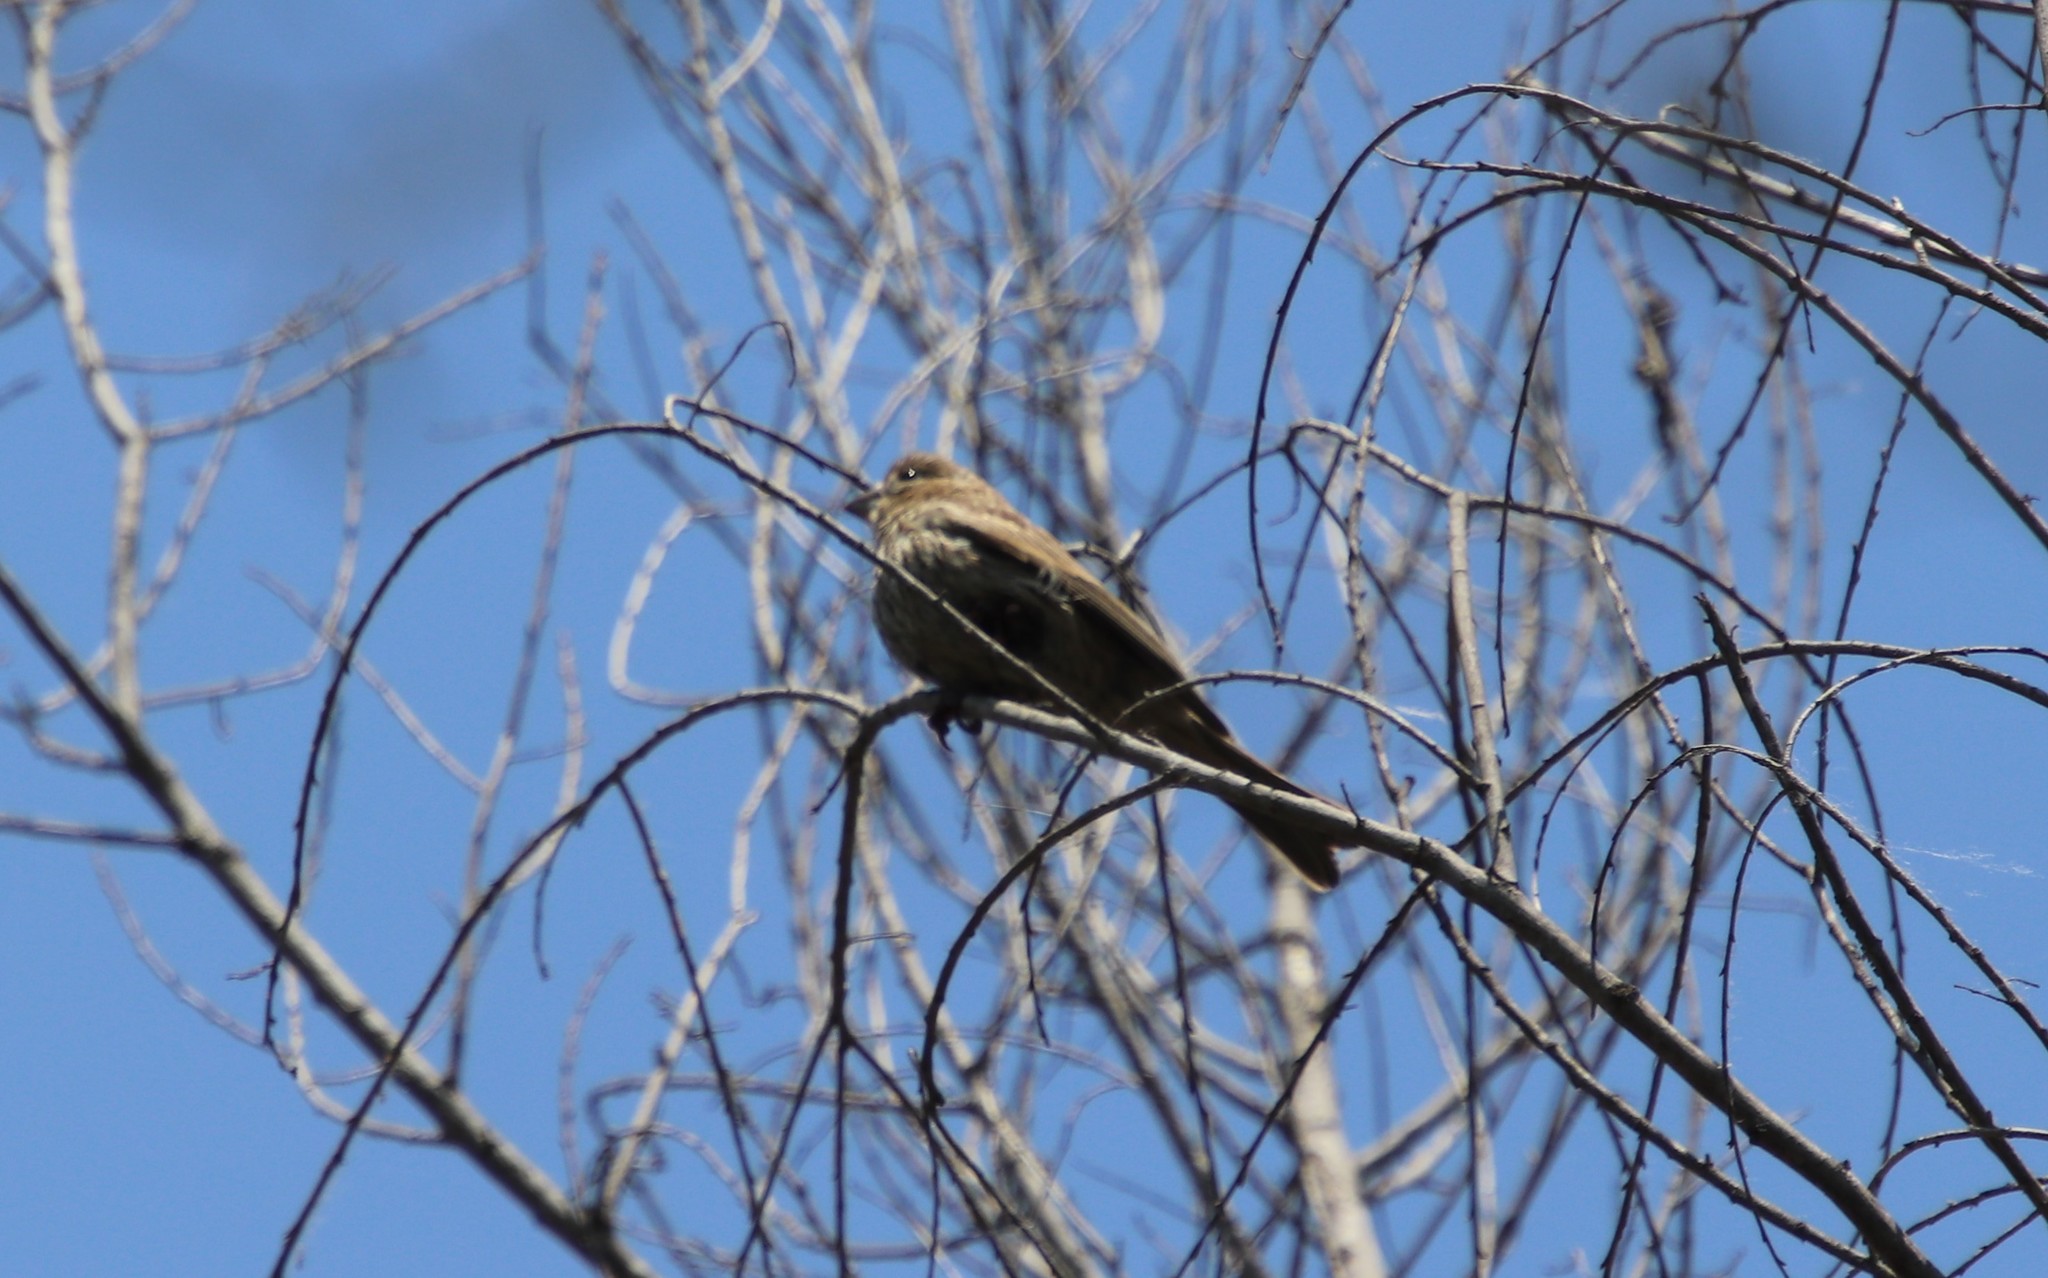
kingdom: Animalia
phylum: Chordata
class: Aves
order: Passeriformes
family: Fringillidae
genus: Haemorhous
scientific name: Haemorhous mexicanus
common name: House finch
